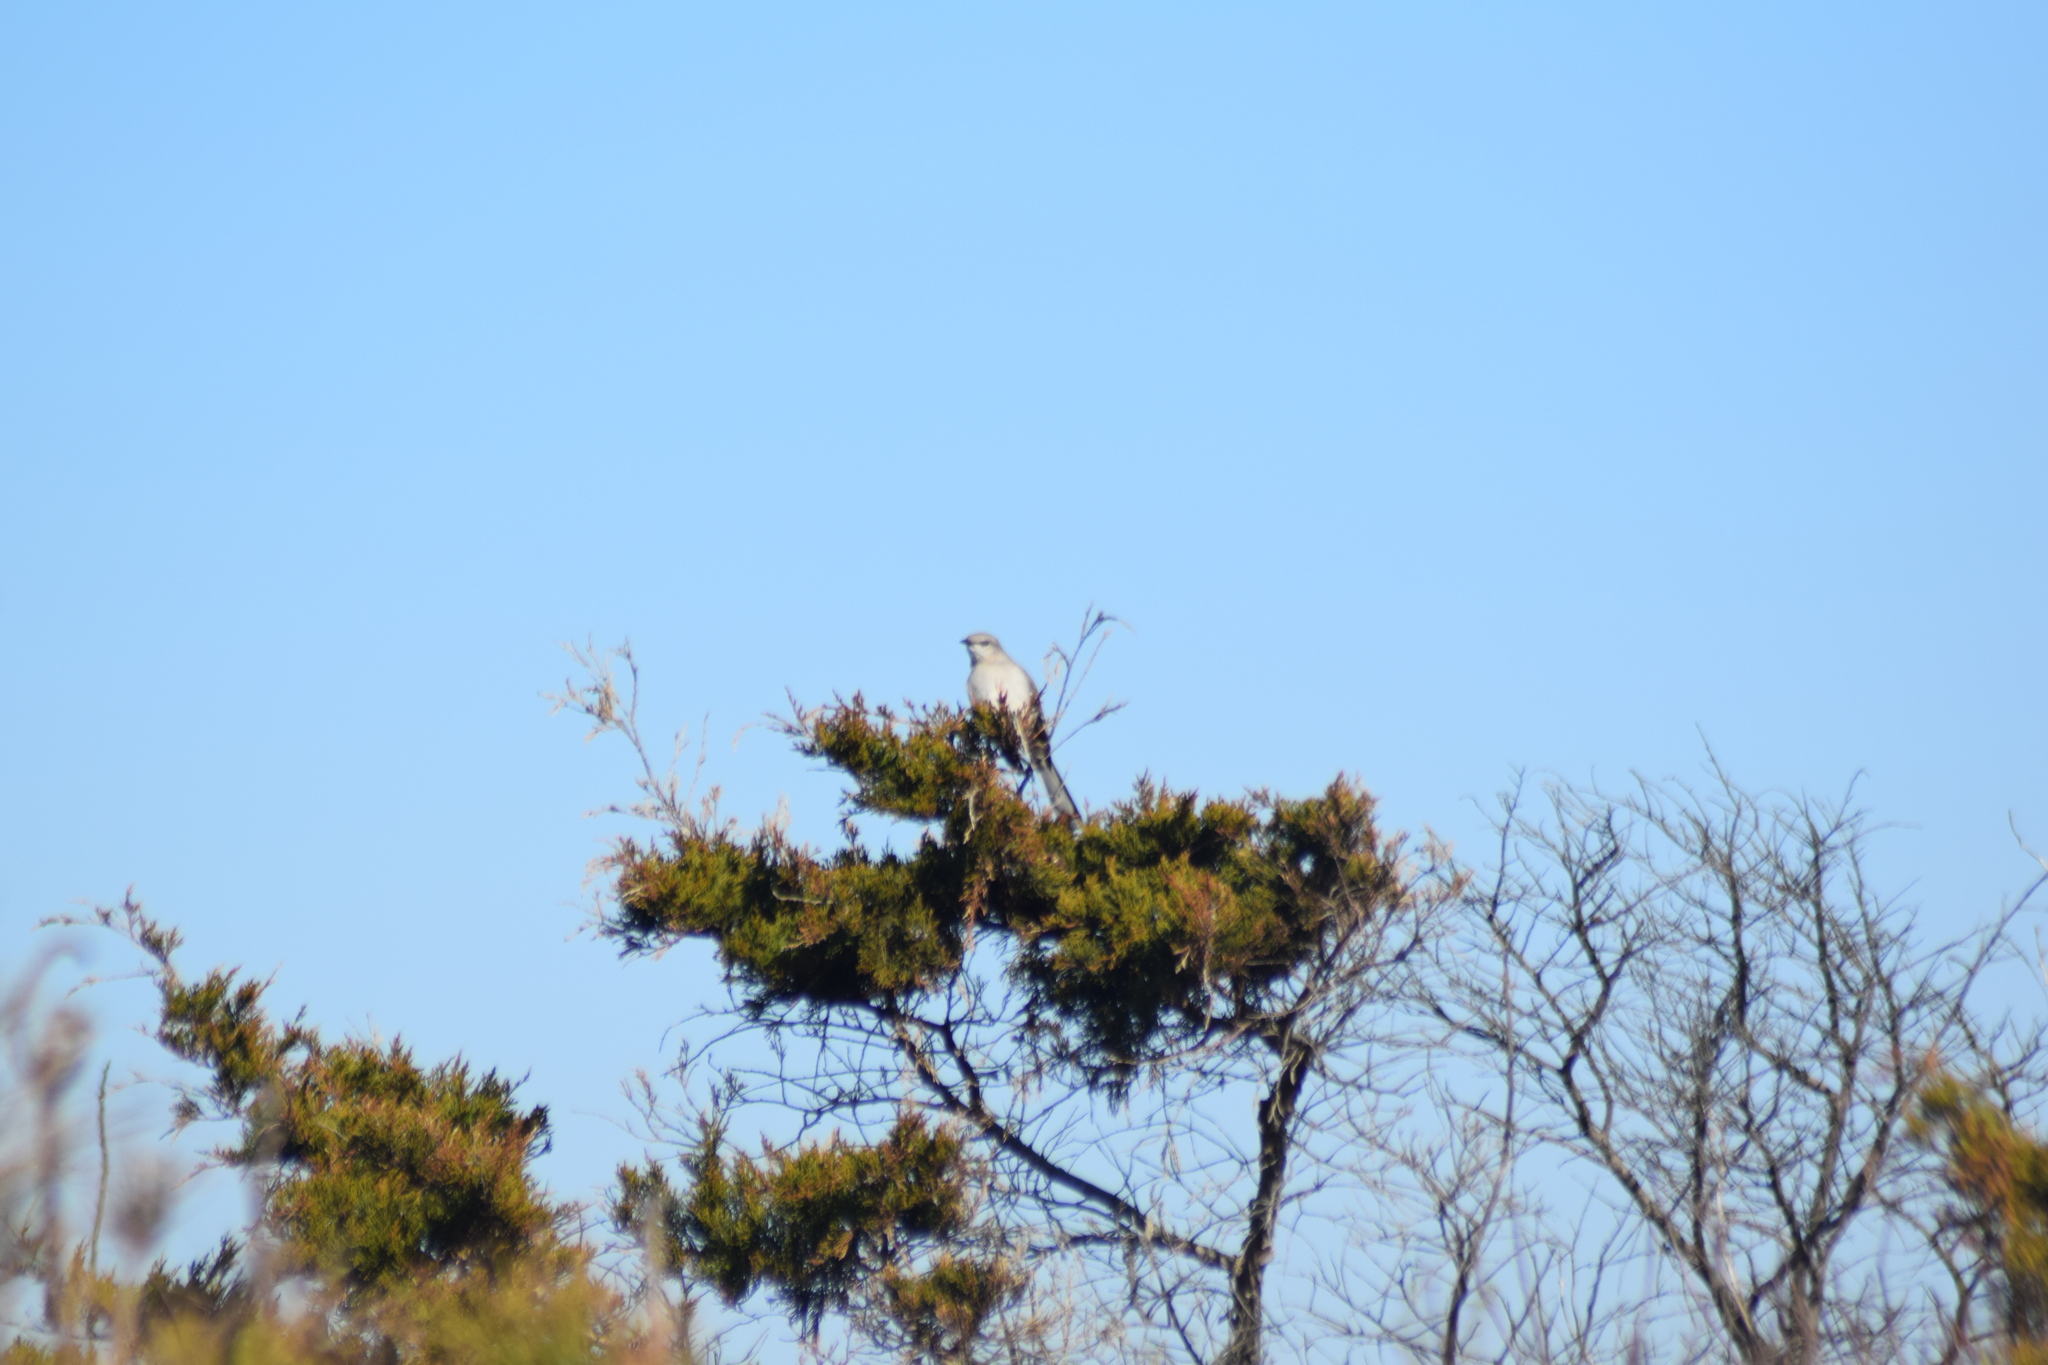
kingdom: Animalia
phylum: Chordata
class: Aves
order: Passeriformes
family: Mimidae
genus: Mimus
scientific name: Mimus polyglottos
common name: Northern mockingbird
